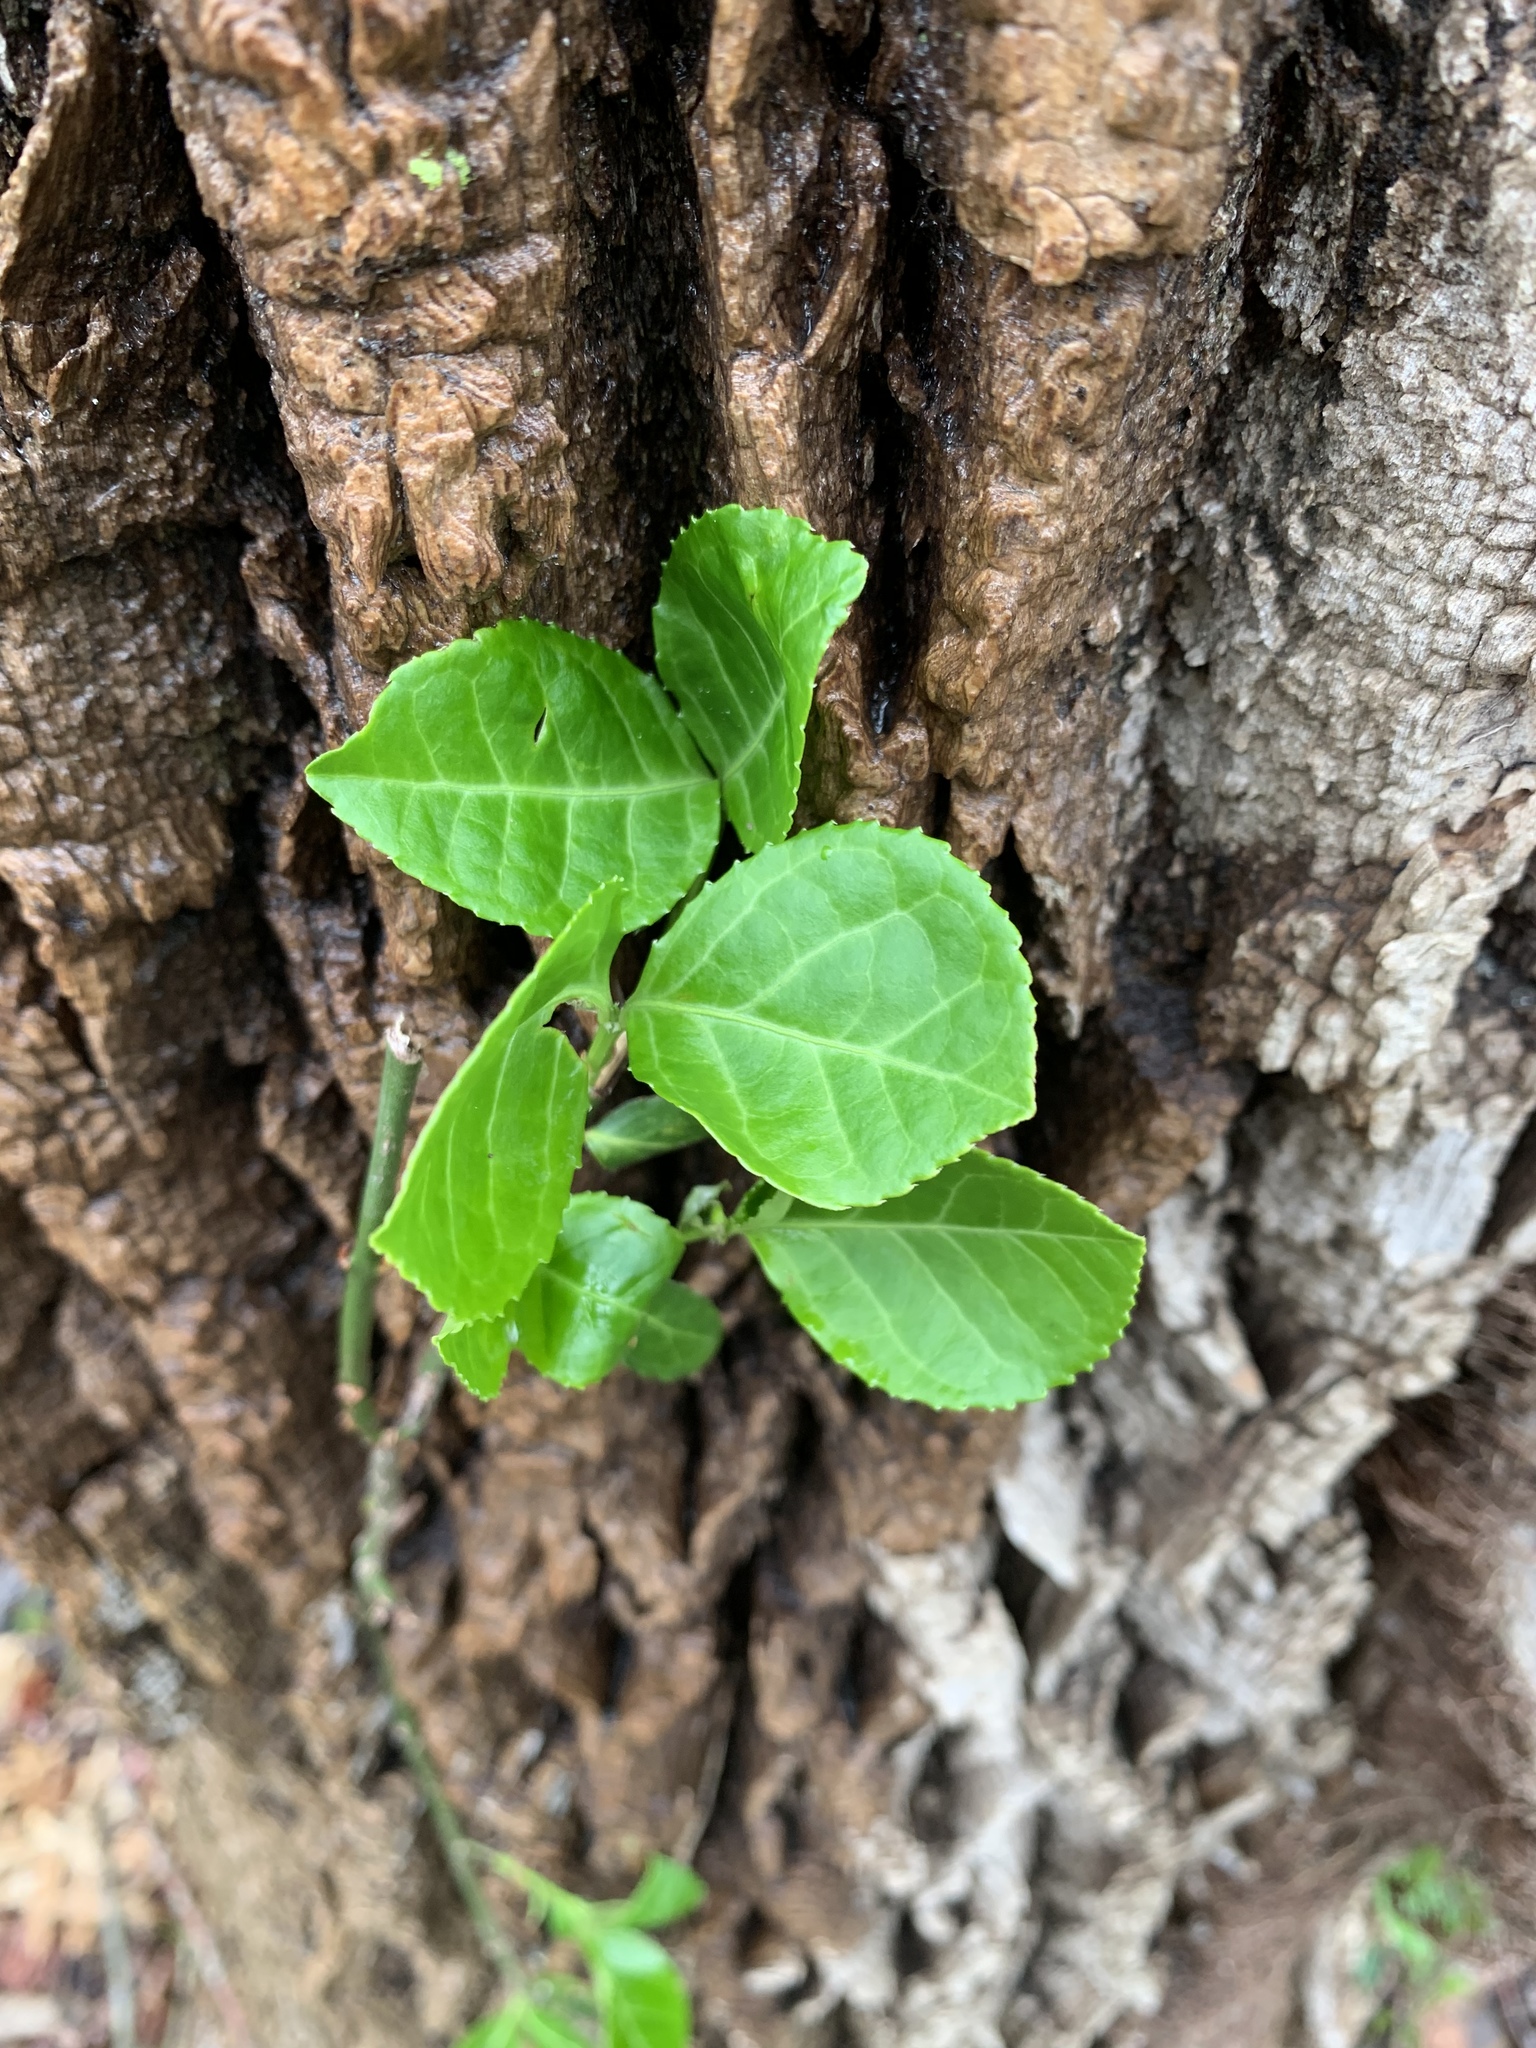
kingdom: Plantae
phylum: Tracheophyta
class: Magnoliopsida
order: Celastrales
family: Celastraceae
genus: Euonymus
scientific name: Euonymus fortunei
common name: Climbing euonymus
